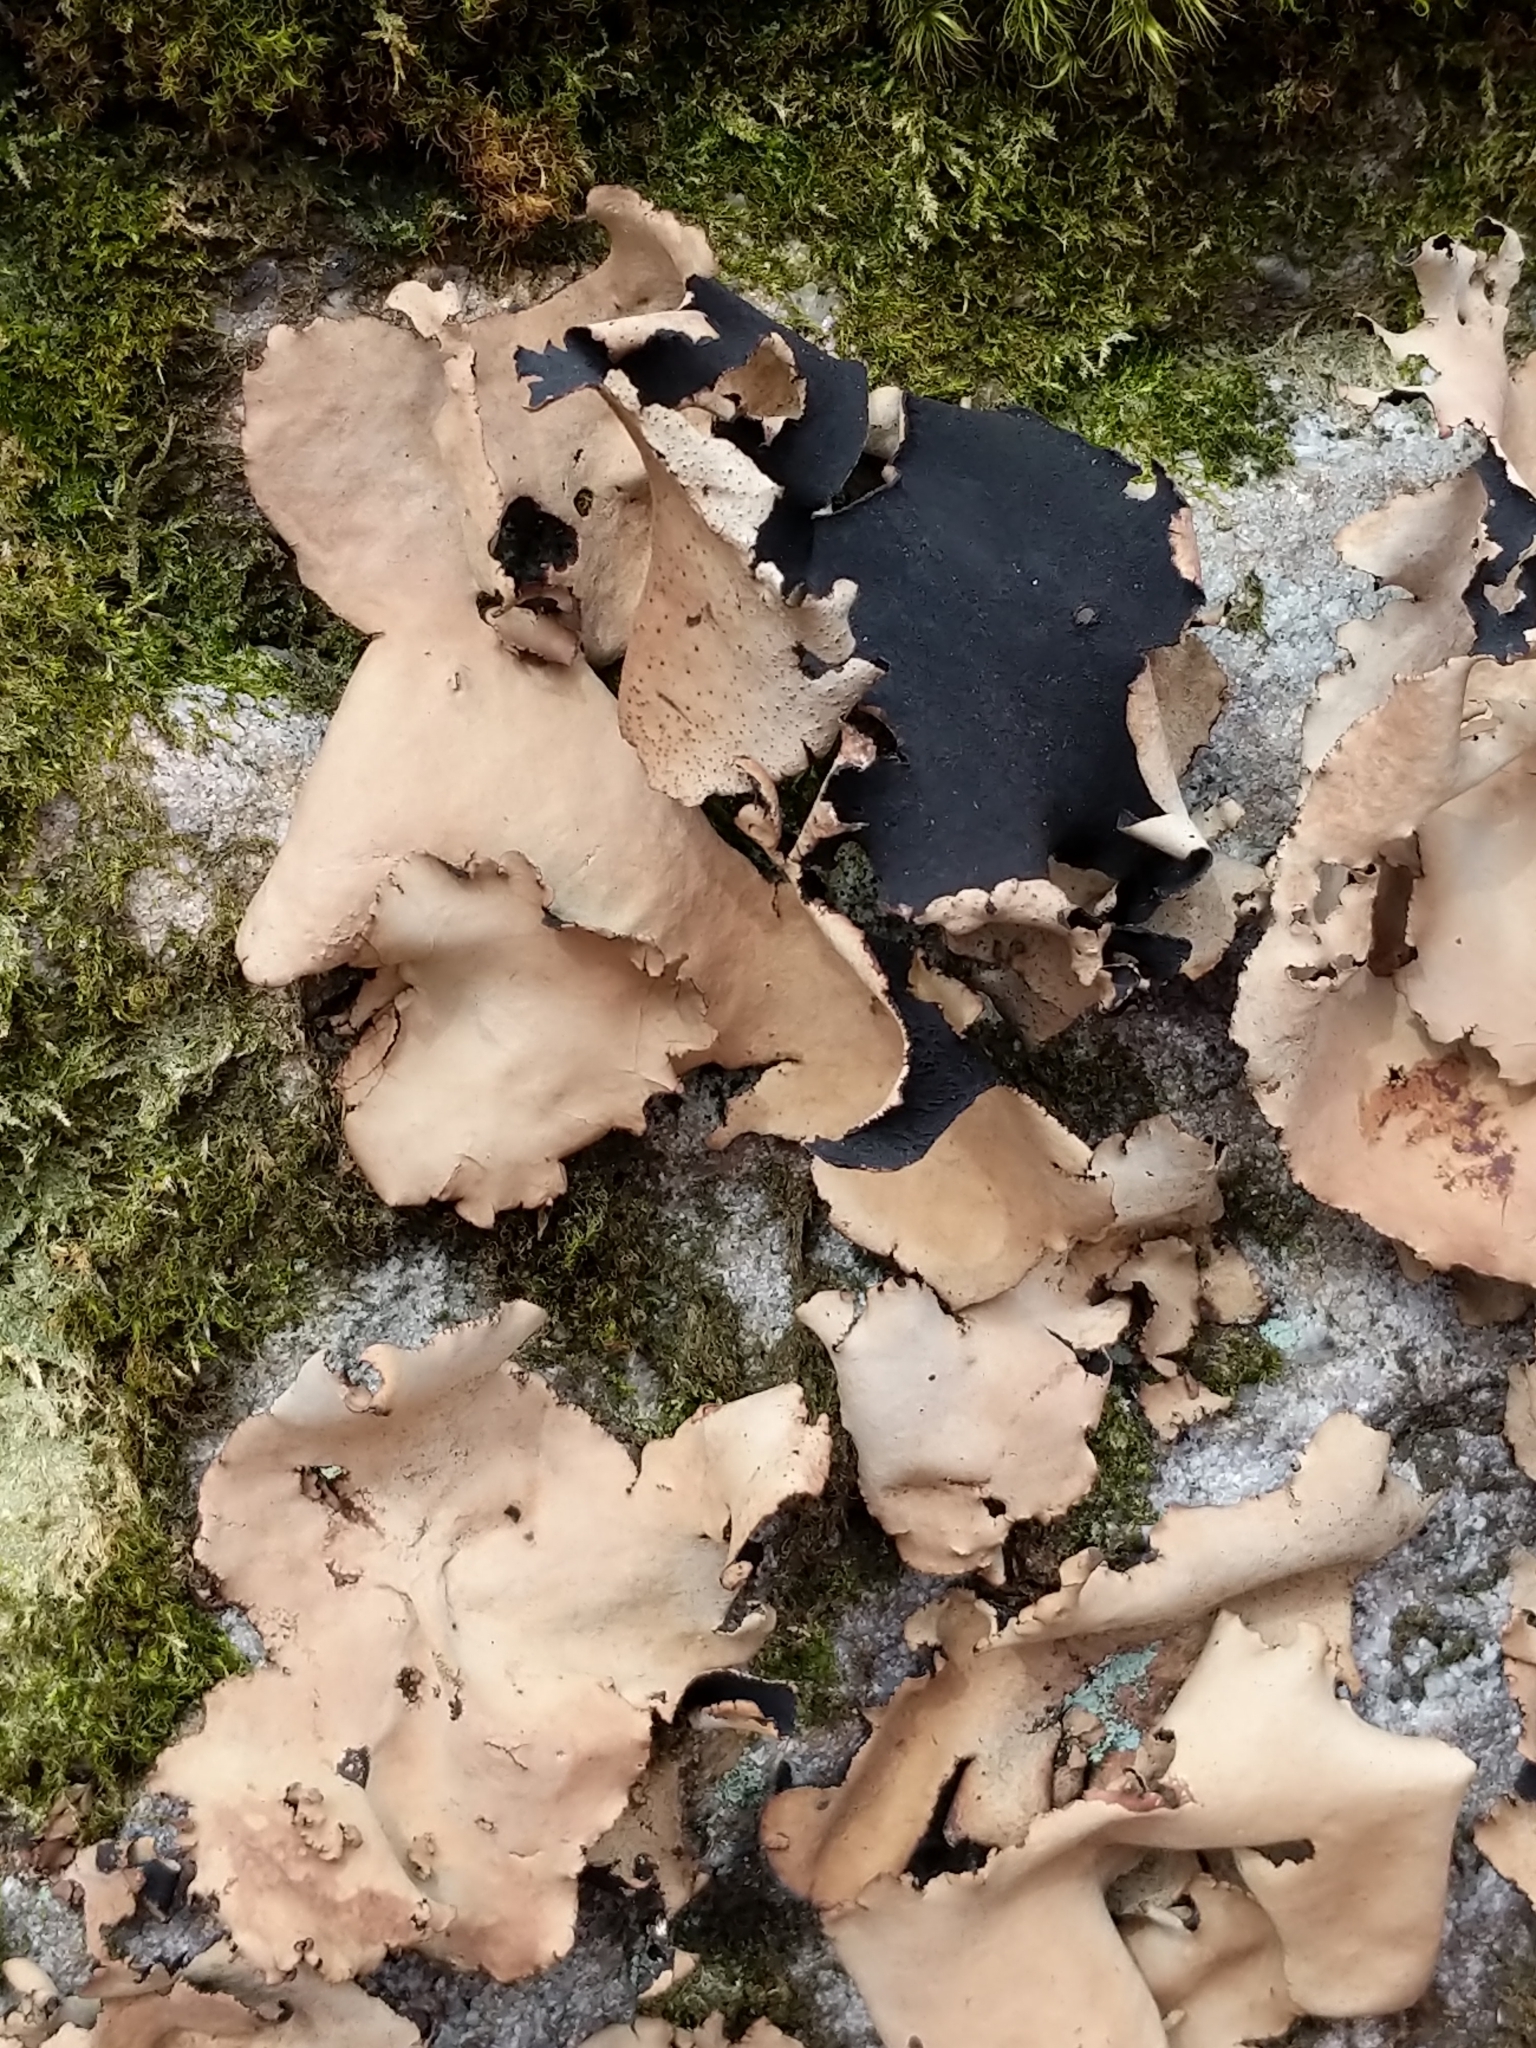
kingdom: Fungi
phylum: Ascomycota
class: Lecanoromycetes
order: Umbilicariales
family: Umbilicariaceae
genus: Umbilicaria
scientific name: Umbilicaria mammulata
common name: Smooth rock tripe
